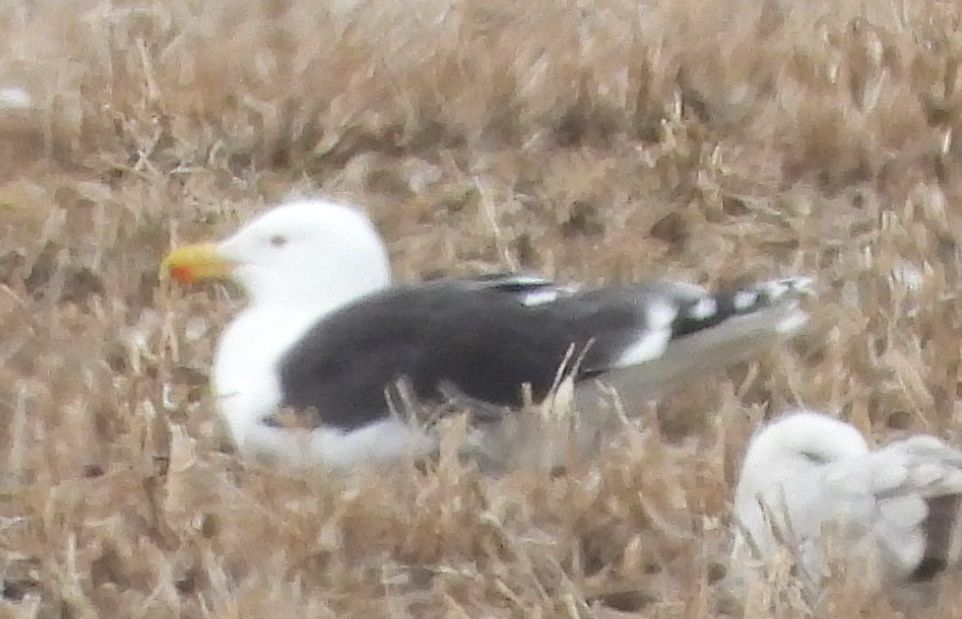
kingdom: Animalia
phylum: Chordata
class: Aves
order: Charadriiformes
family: Laridae
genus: Larus
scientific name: Larus marinus
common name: Great black-backed gull
